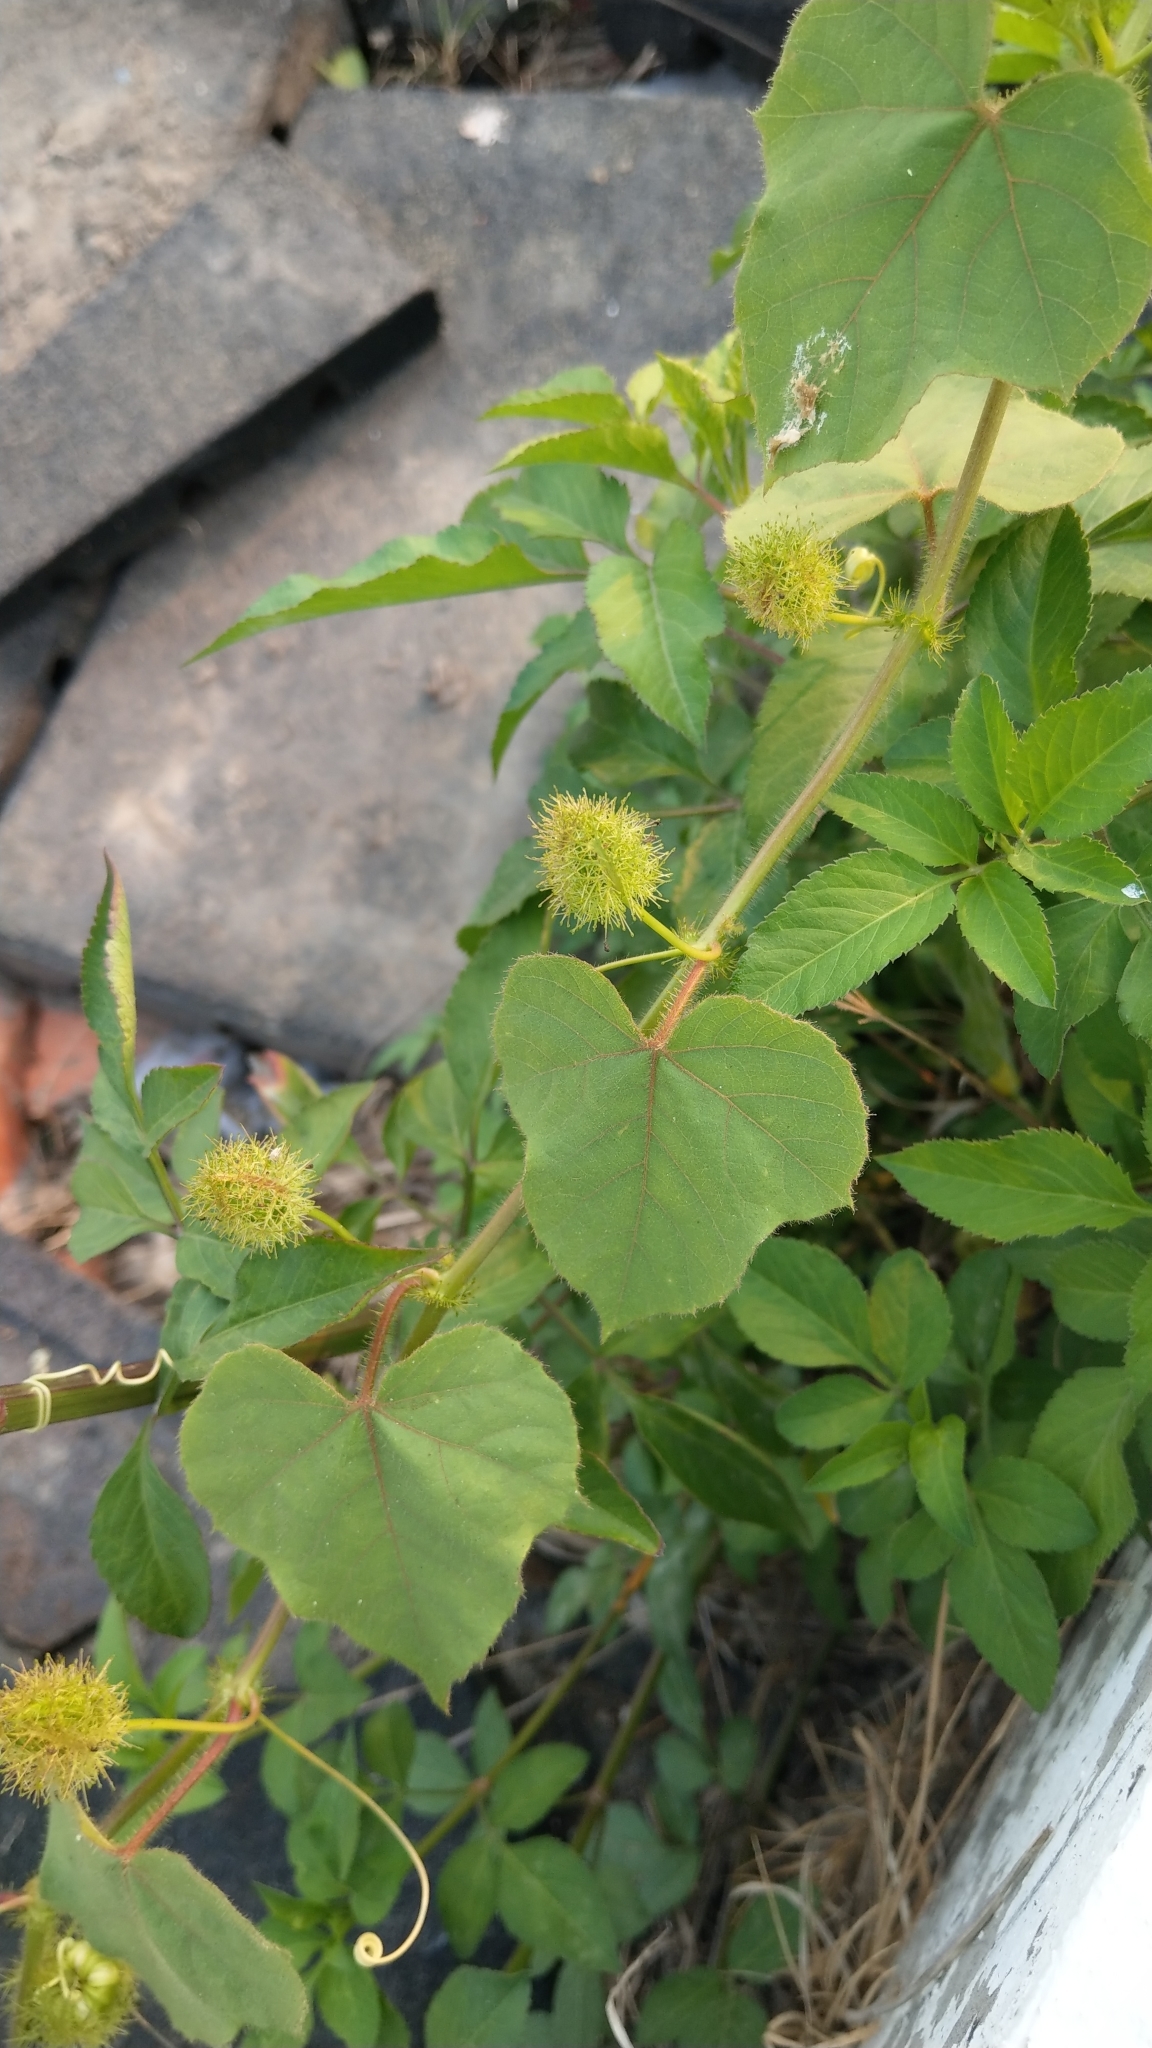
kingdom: Plantae
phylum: Tracheophyta
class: Magnoliopsida
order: Malpighiales
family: Passifloraceae
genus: Passiflora
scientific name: Passiflora vesicaria
